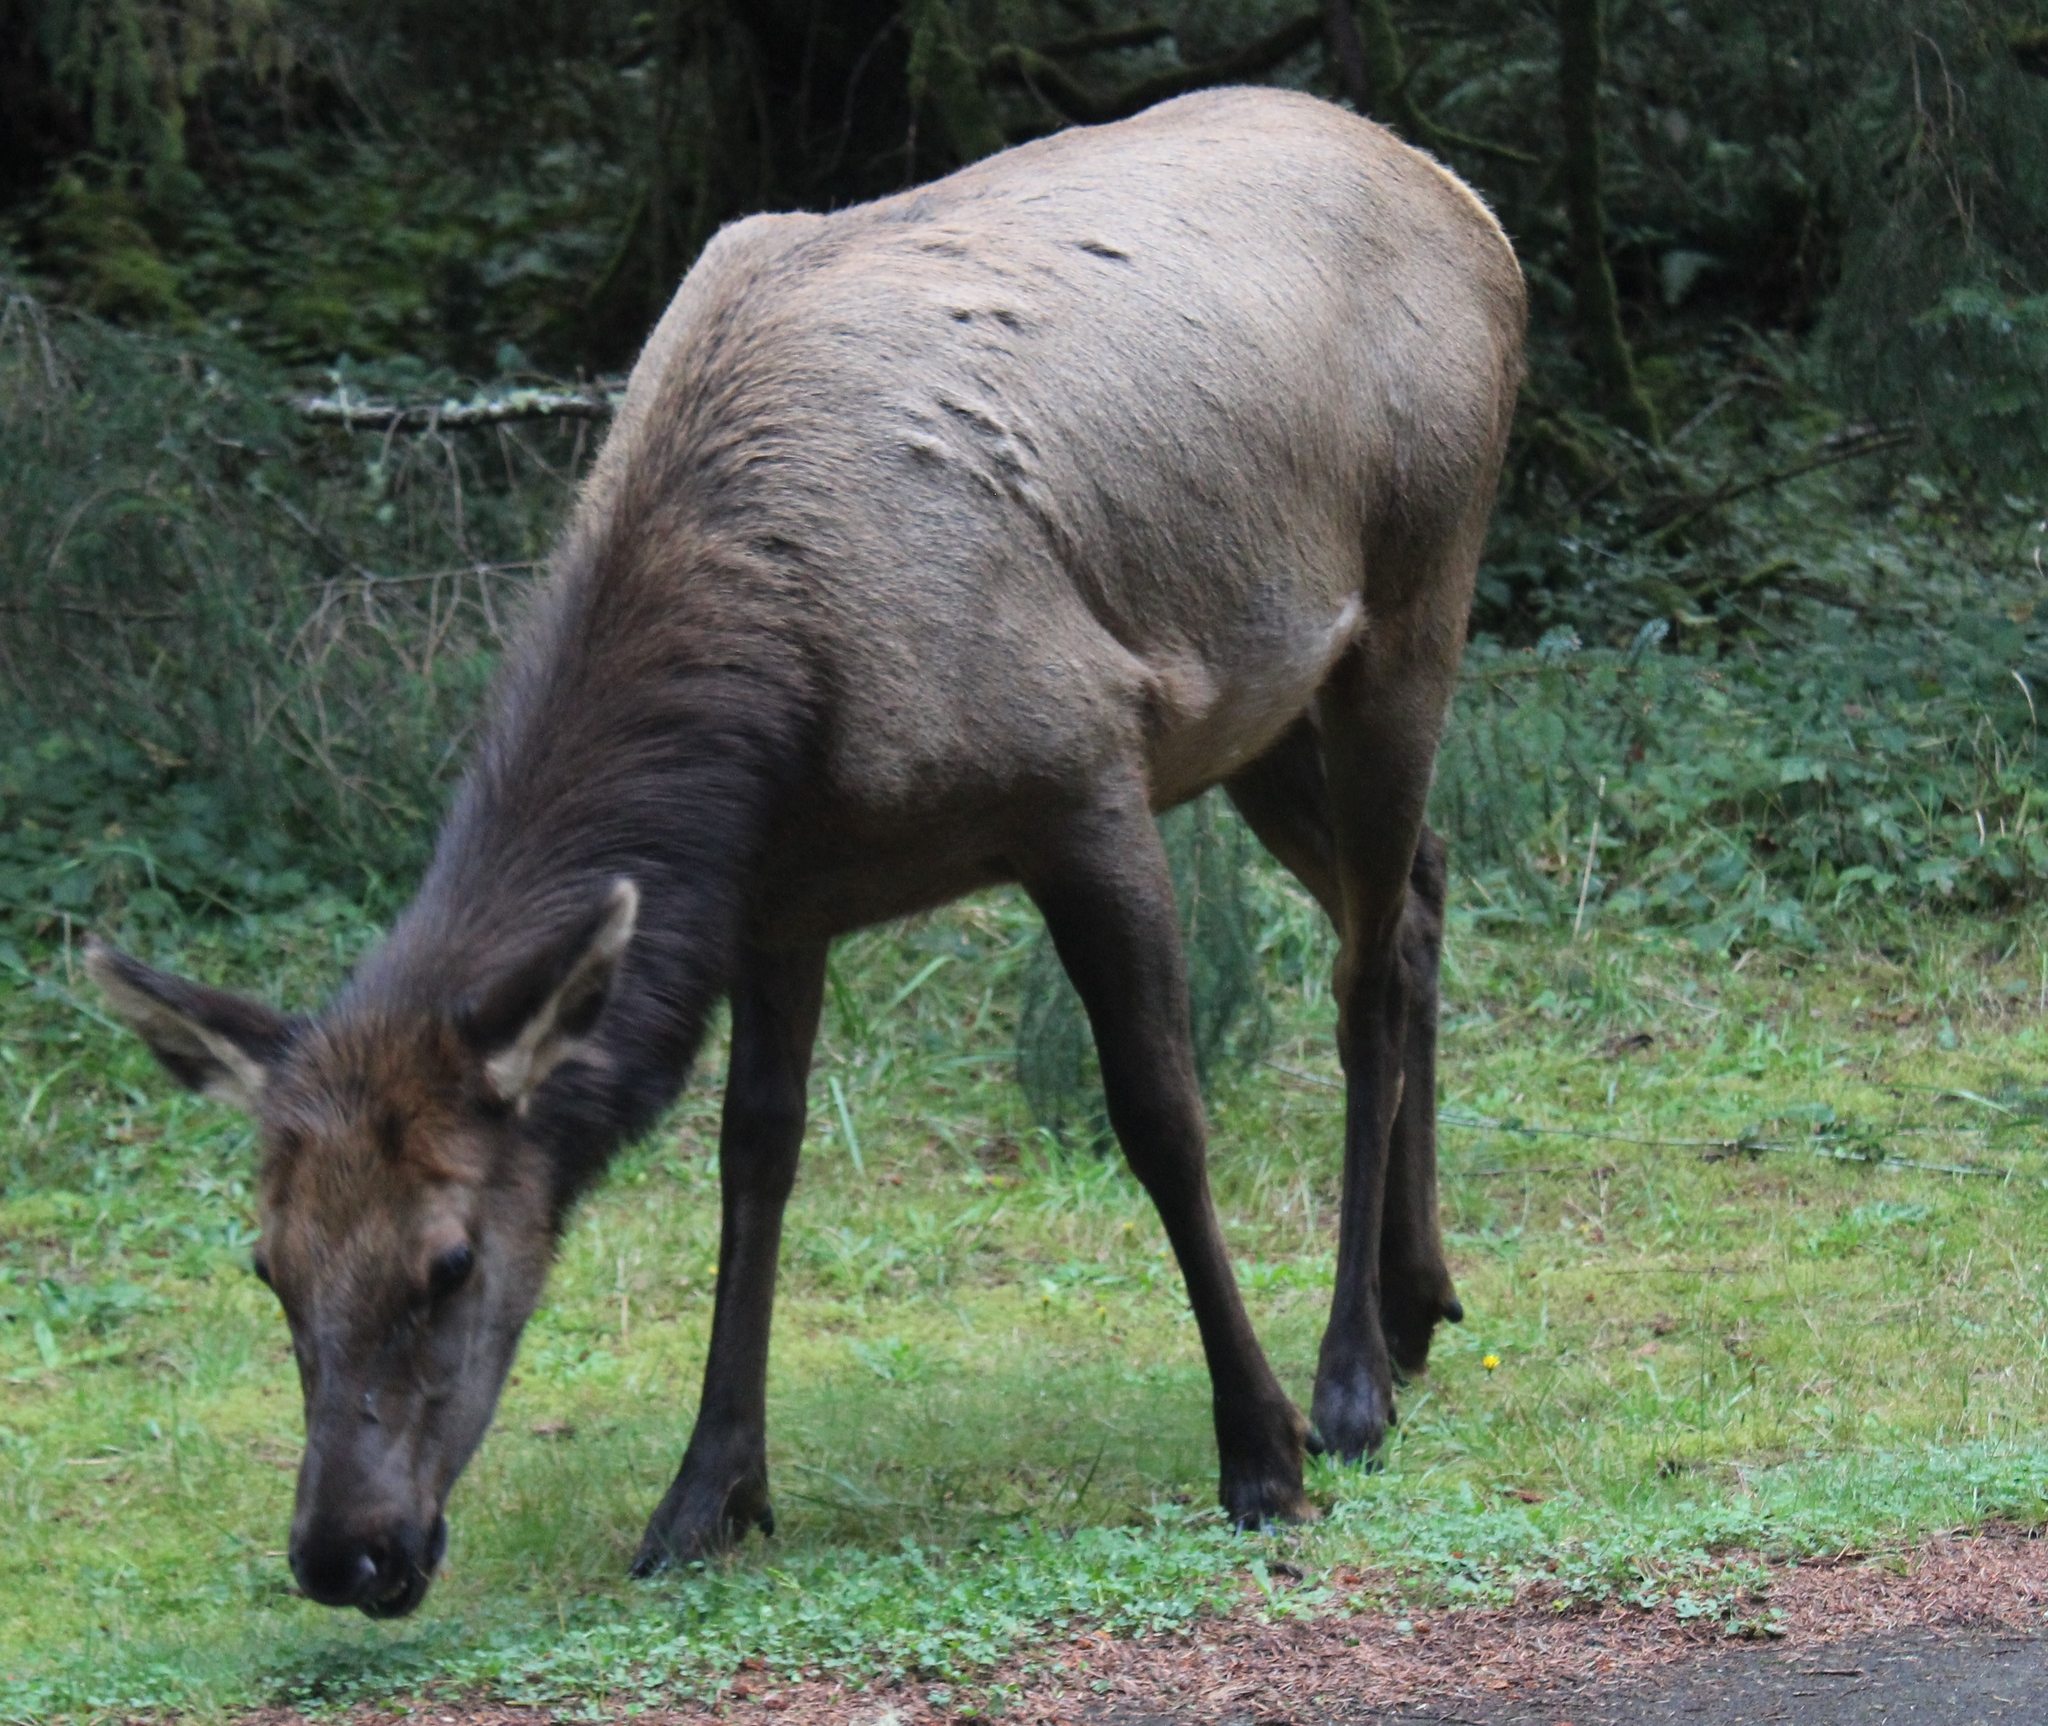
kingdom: Animalia
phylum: Chordata
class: Mammalia
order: Artiodactyla
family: Cervidae
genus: Cervus
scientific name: Cervus elaphus
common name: Red deer
